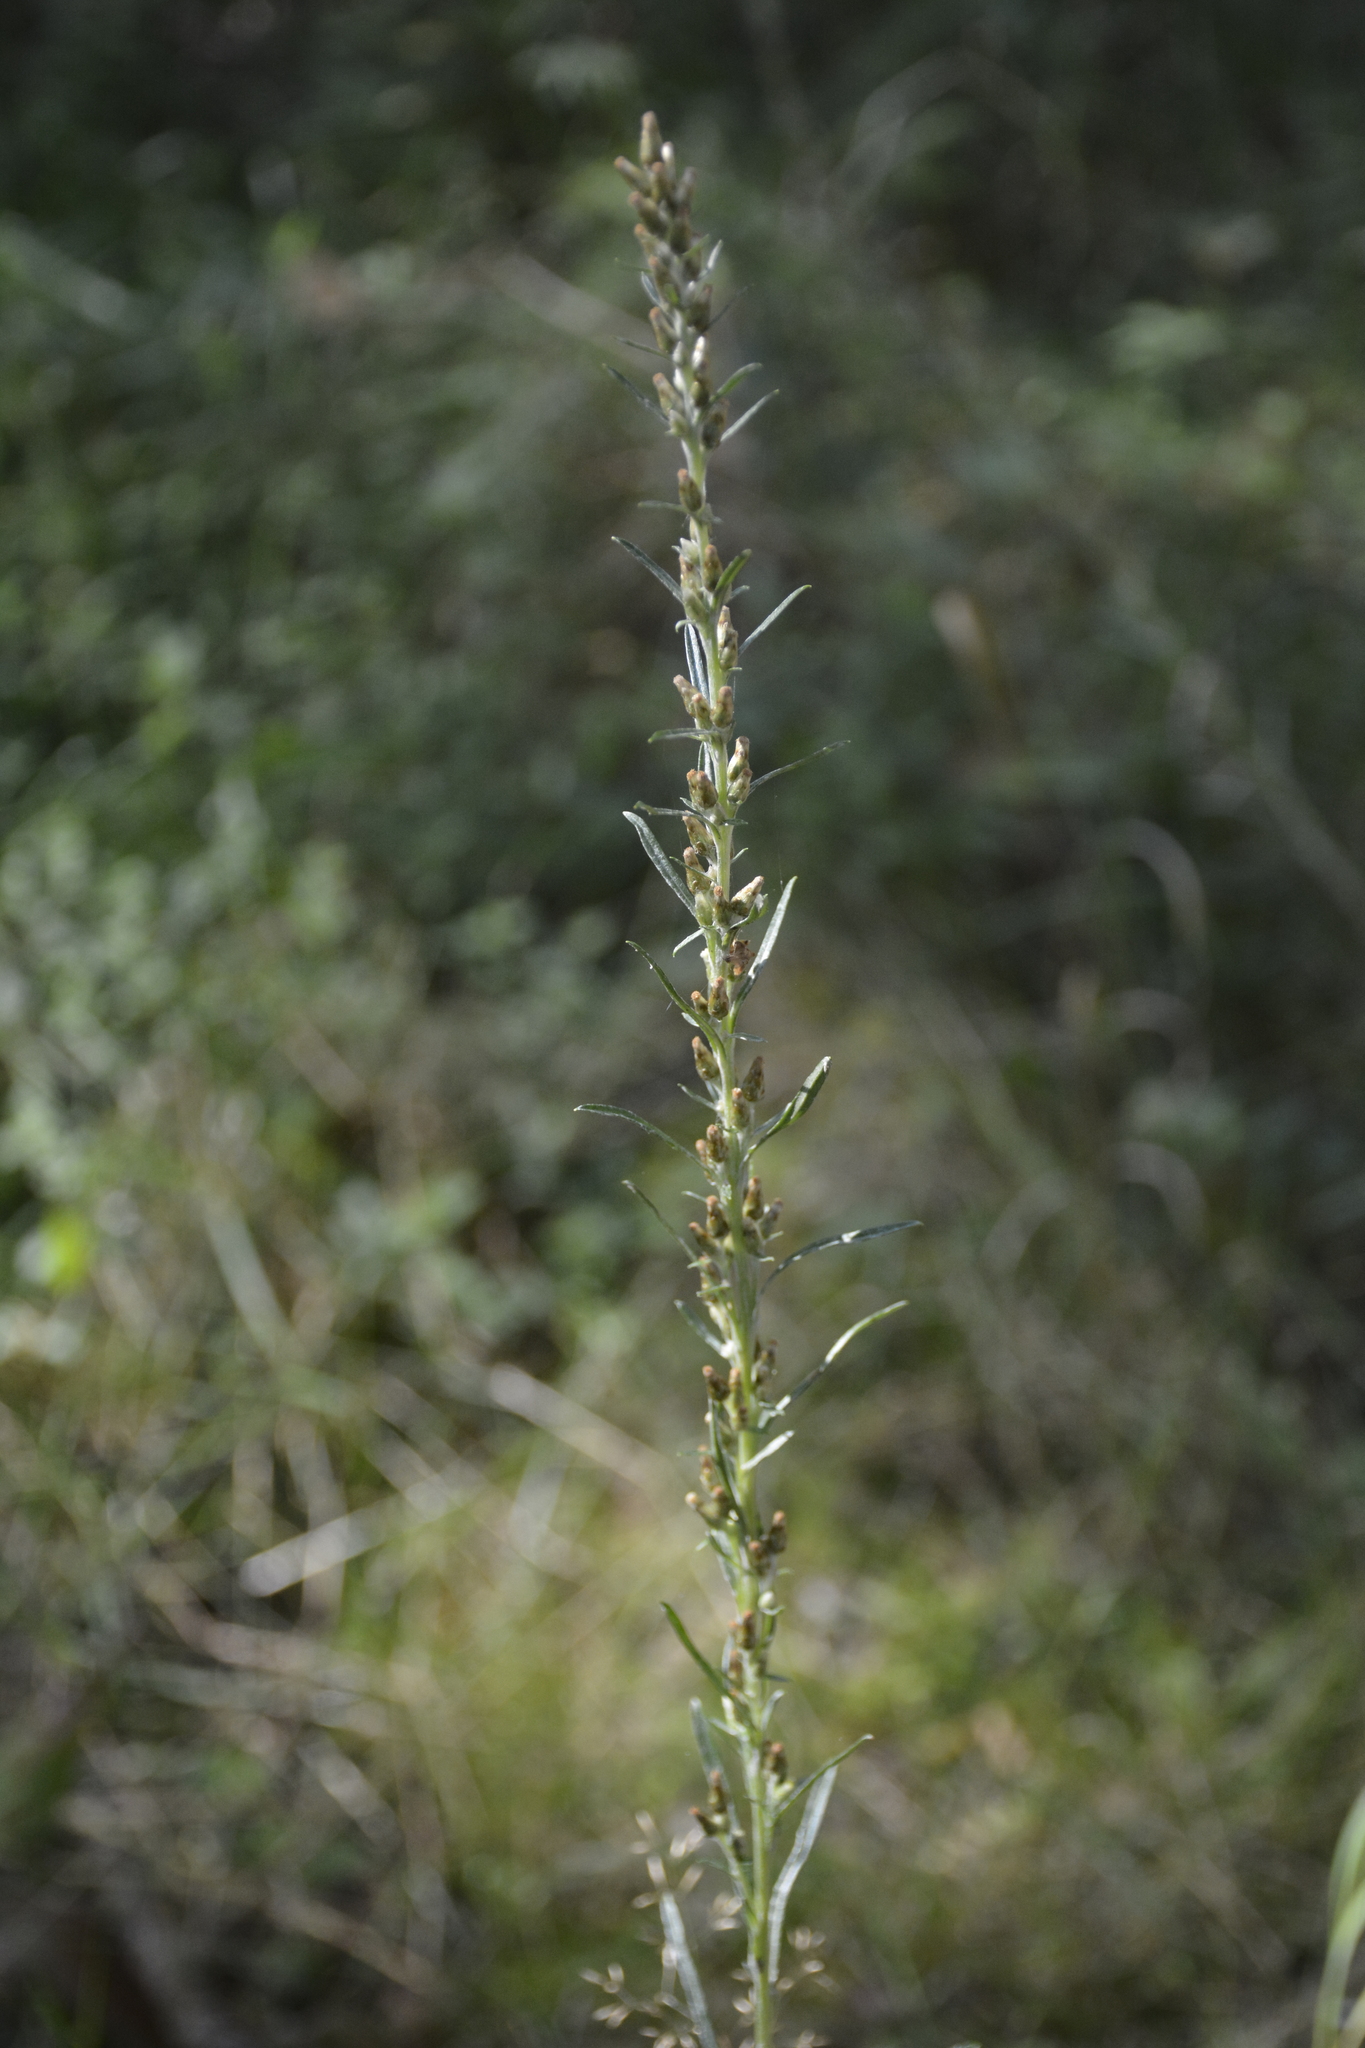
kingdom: Plantae
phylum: Tracheophyta
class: Magnoliopsida
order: Asterales
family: Asteraceae
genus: Omalotheca
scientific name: Omalotheca sylvatica
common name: Heath cudweed
